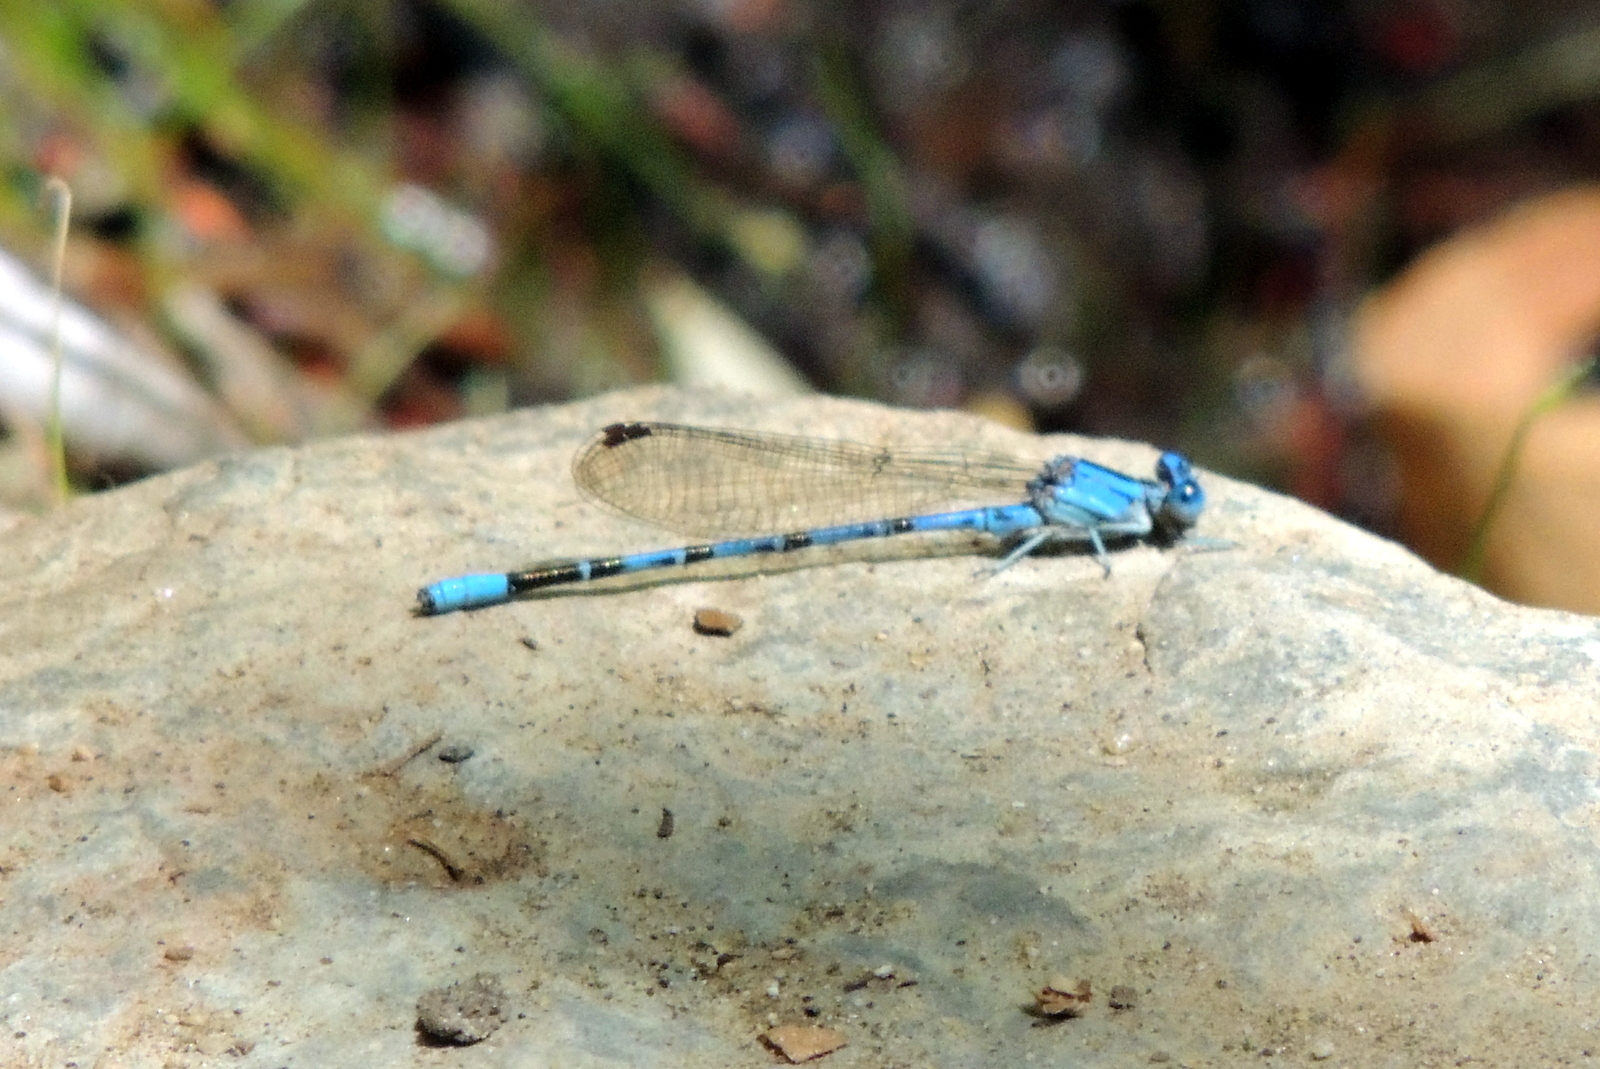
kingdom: Animalia
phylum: Arthropoda
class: Insecta
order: Odonata
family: Coenagrionidae
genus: Argia
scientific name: Argia vivida
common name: Vivid dancer
